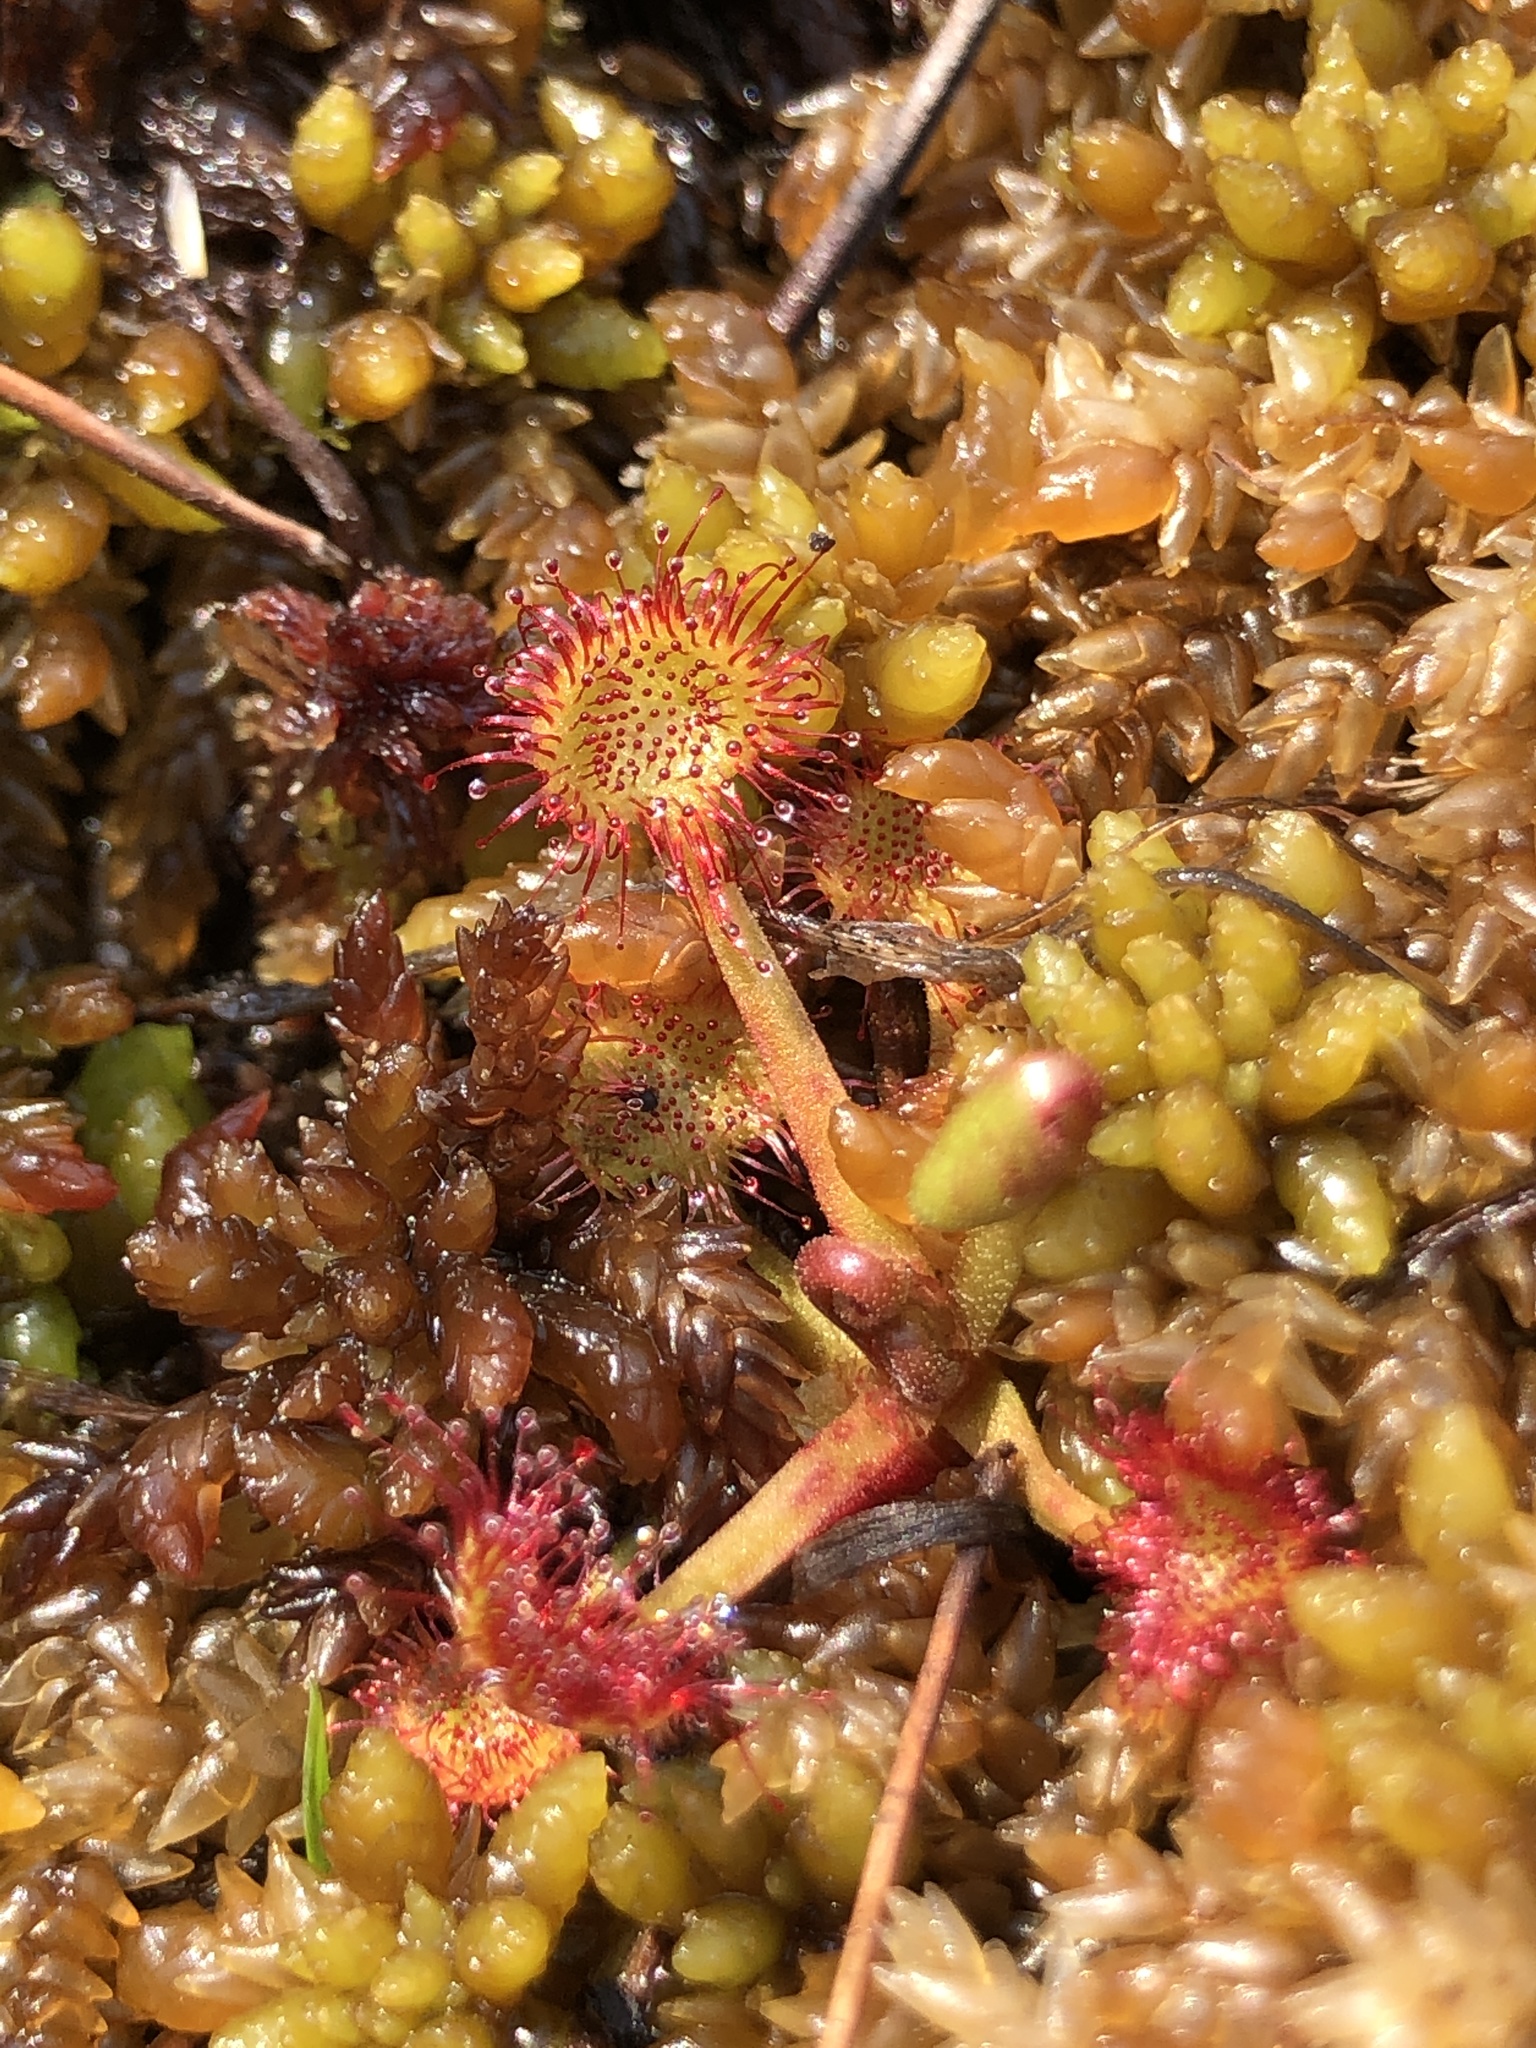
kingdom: Plantae
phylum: Tracheophyta
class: Magnoliopsida
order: Caryophyllales
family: Droseraceae
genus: Drosera
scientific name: Drosera rotundifolia
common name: Round-leaved sundew
